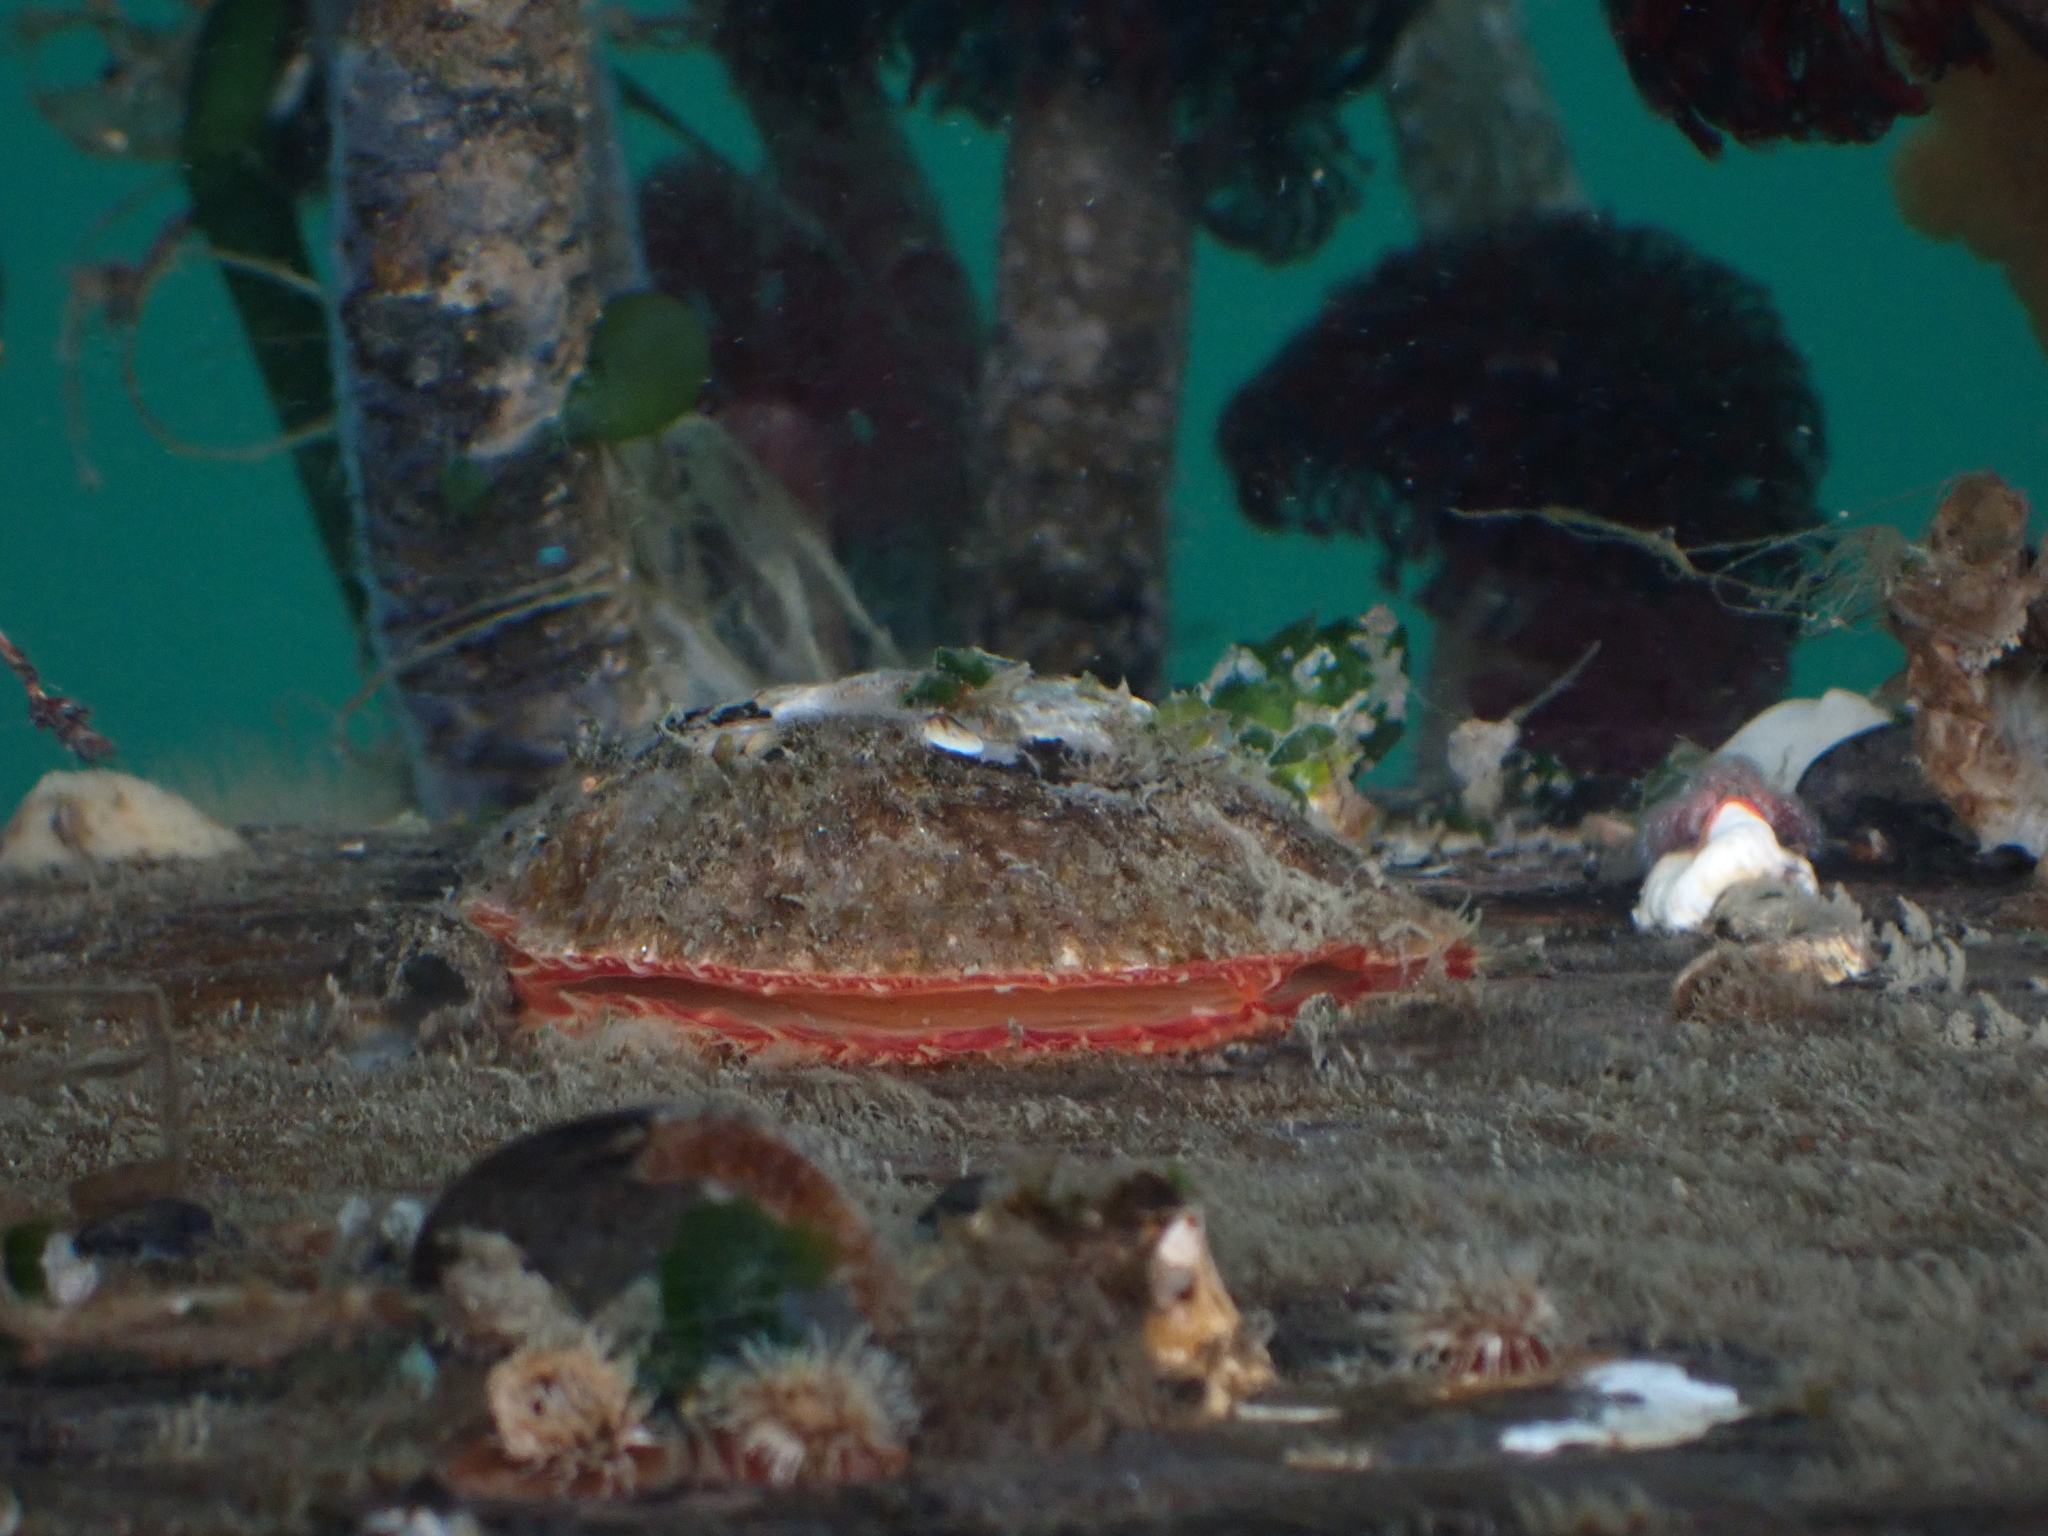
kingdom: Animalia
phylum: Mollusca
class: Bivalvia
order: Pectinida
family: Anomiidae
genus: Pododesmus
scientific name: Pododesmus macrochisma
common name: Alaska jingle
